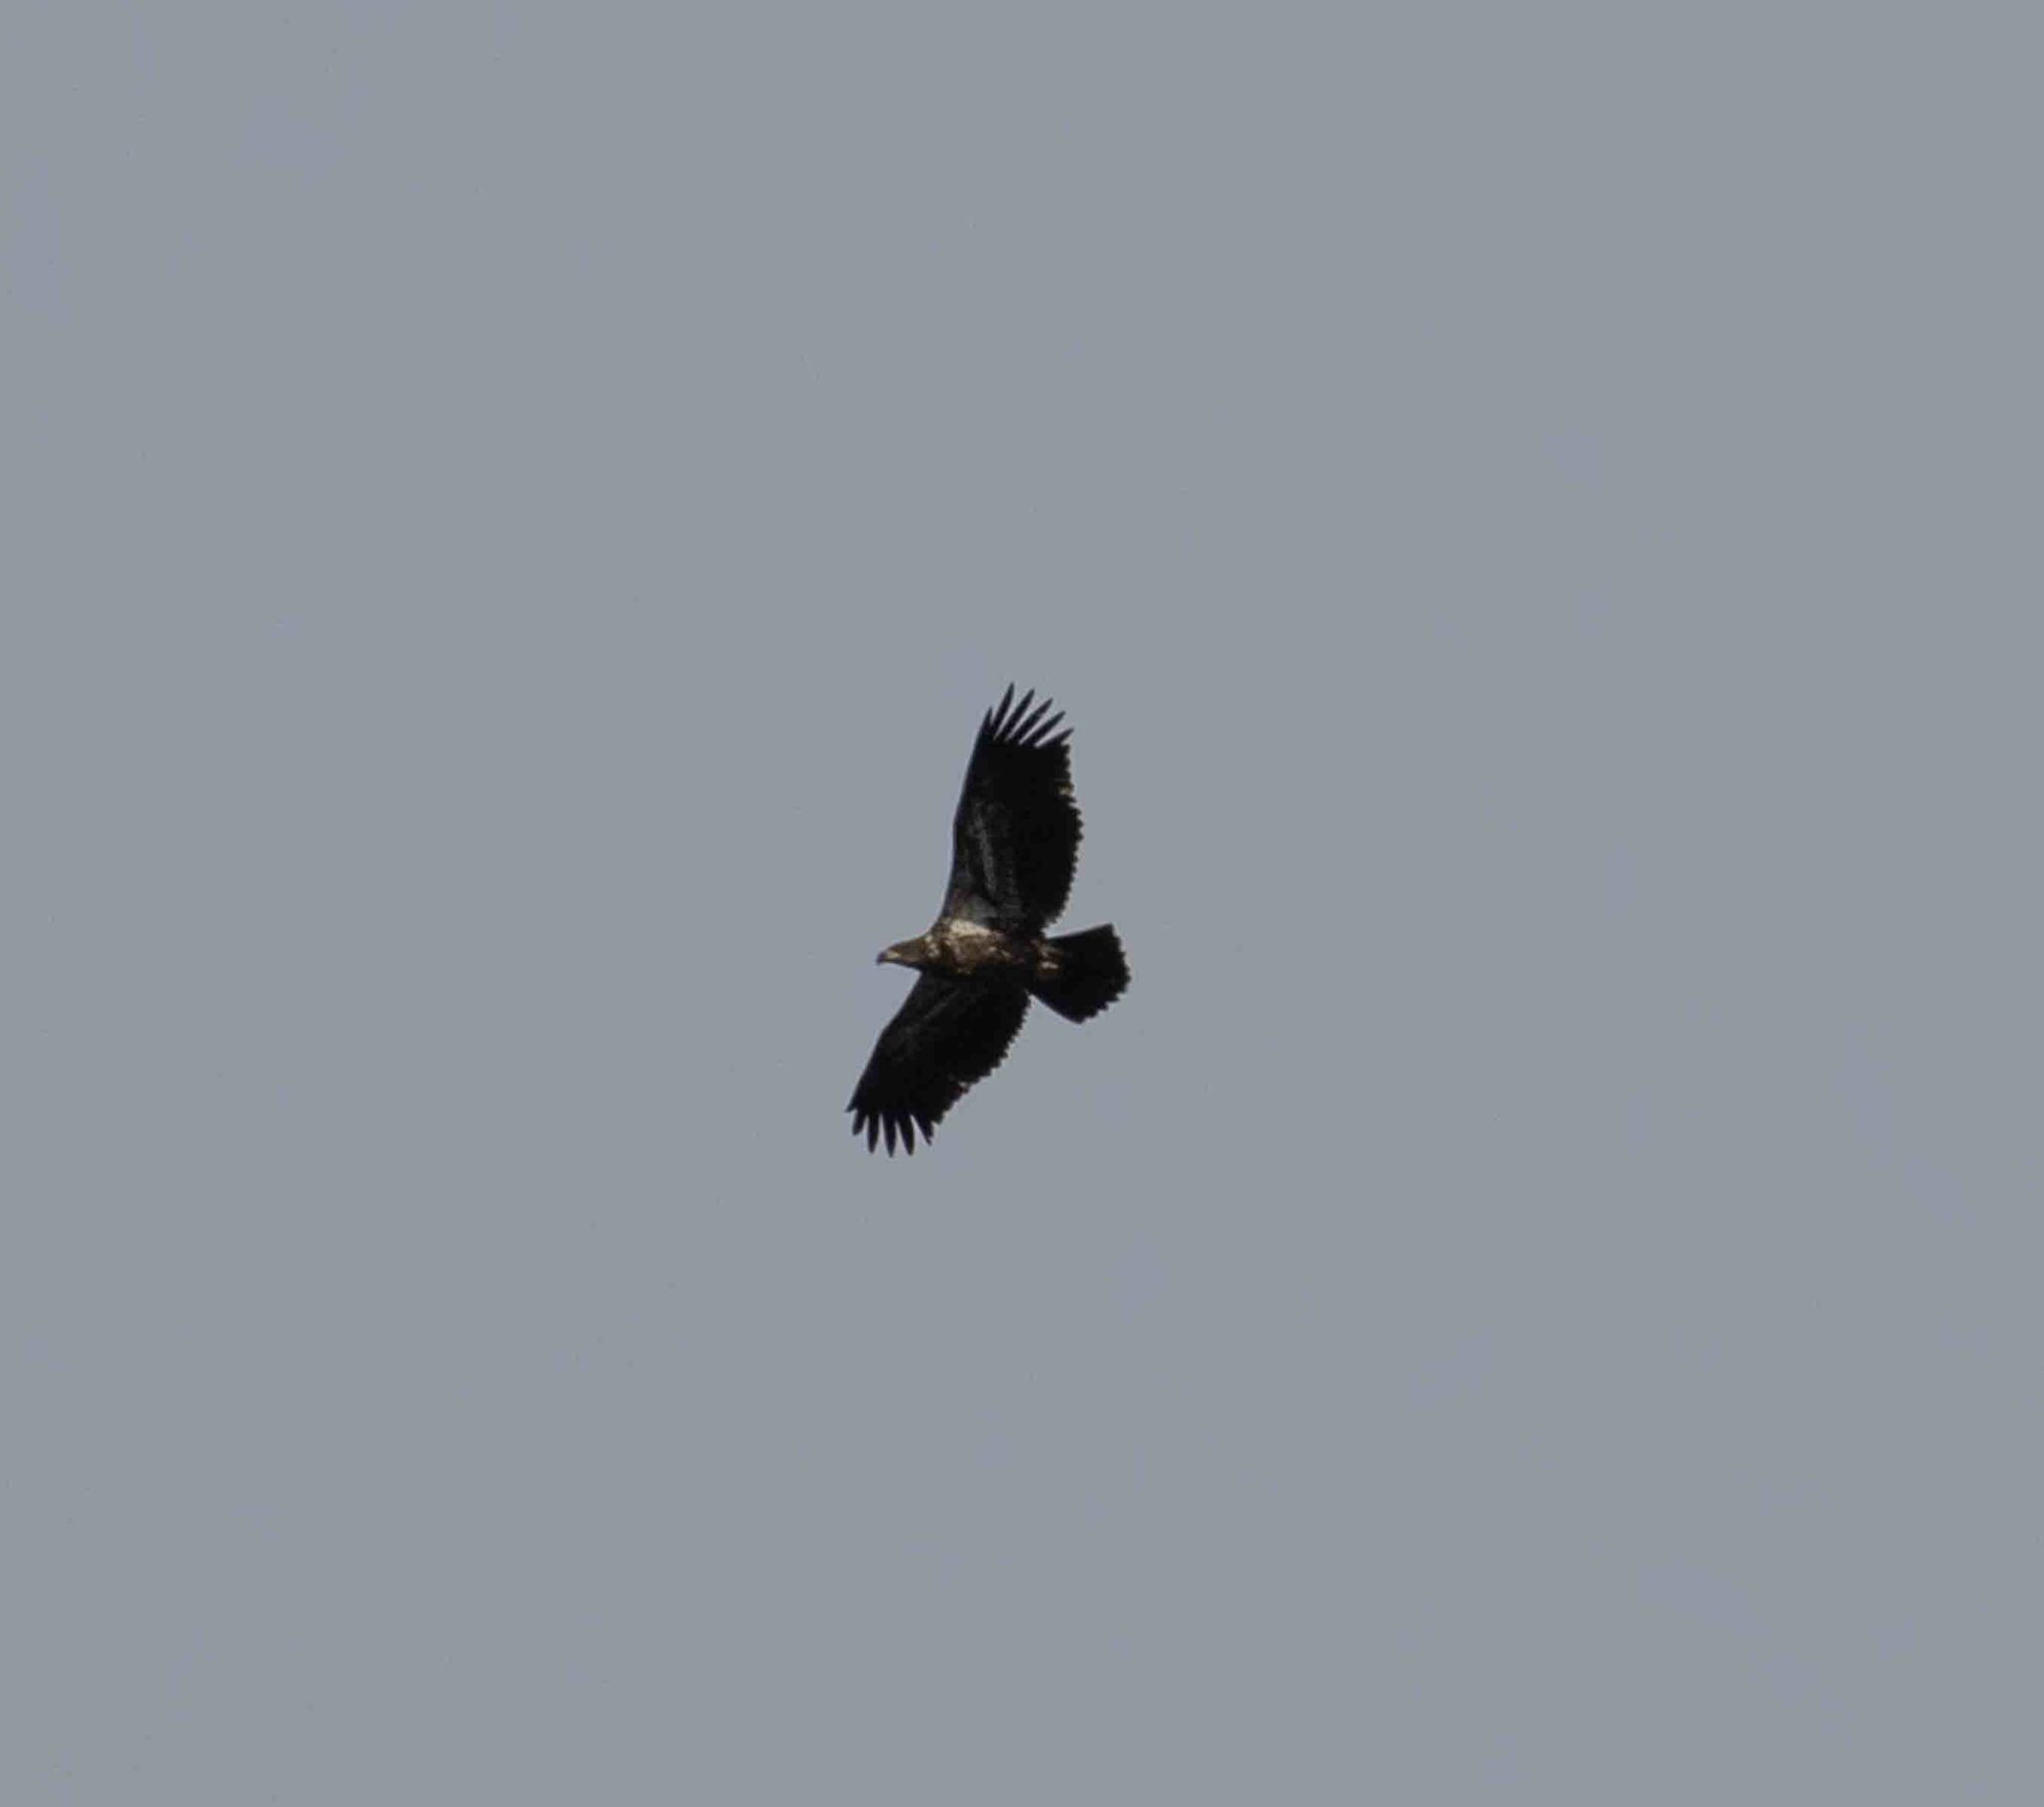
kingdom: Animalia
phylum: Chordata
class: Aves
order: Accipitriformes
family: Accipitridae
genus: Haliaeetus
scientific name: Haliaeetus leucocephalus
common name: Bald eagle
